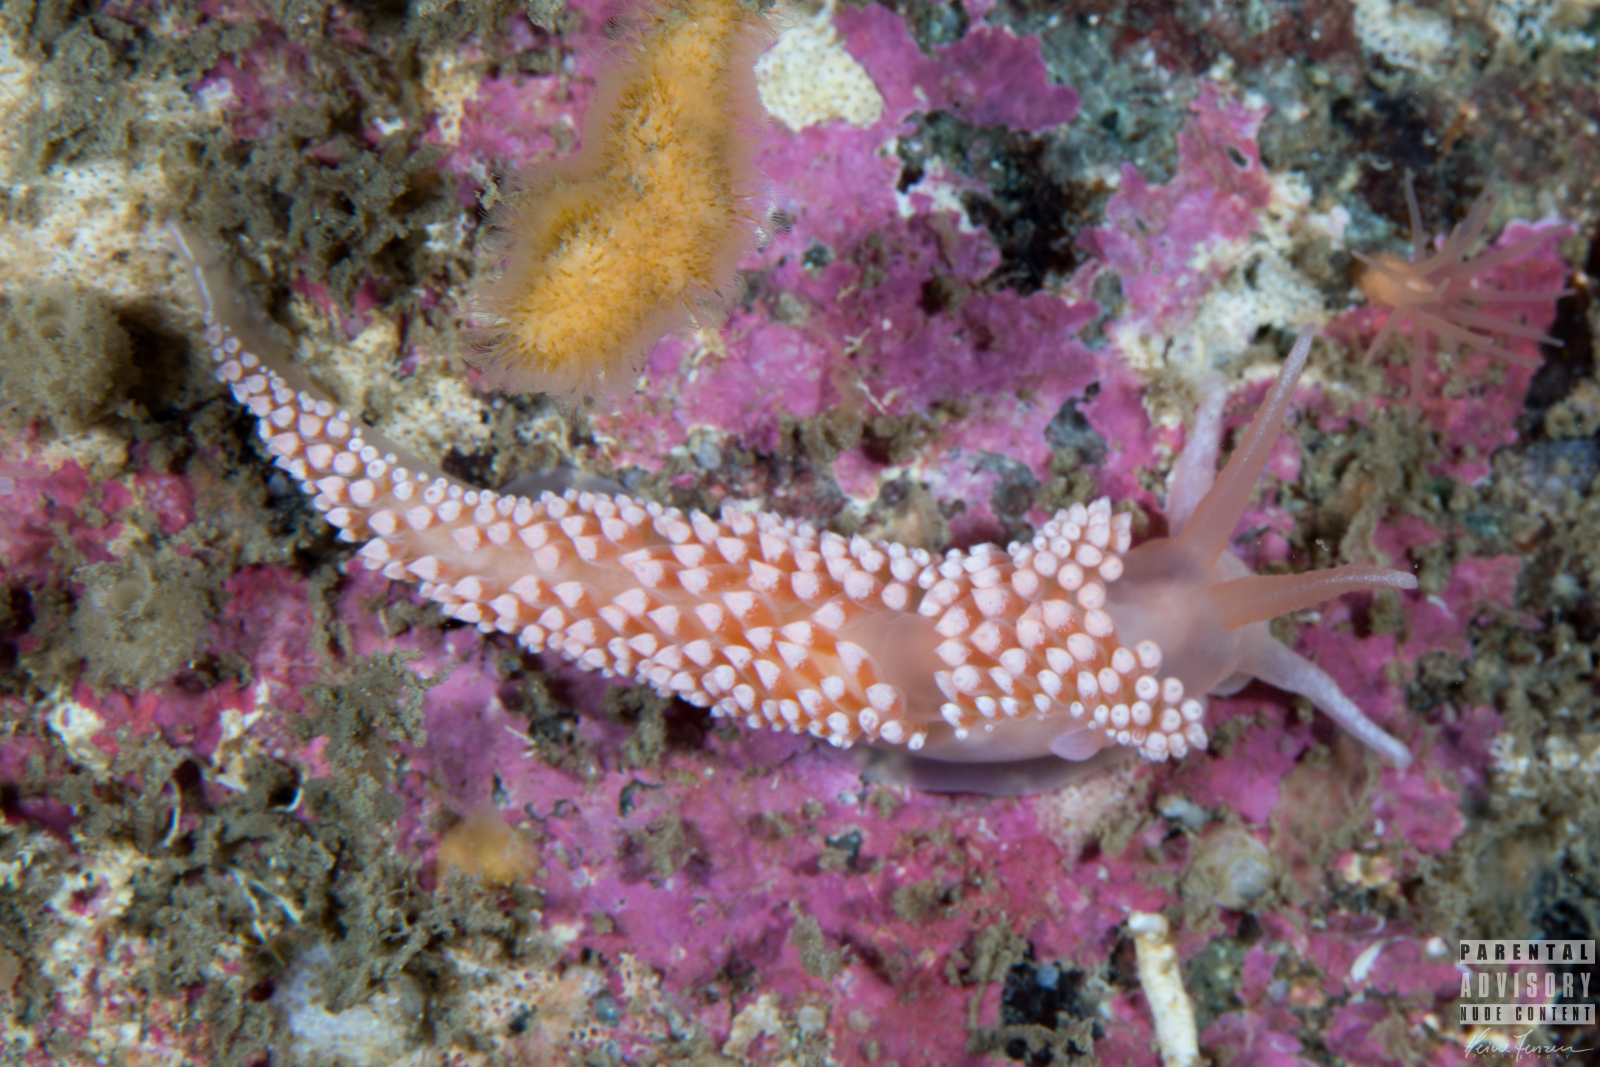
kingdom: Animalia
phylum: Mollusca
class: Gastropoda
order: Nudibranchia
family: Coryphellidae
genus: Coryphella
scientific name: Coryphella verrucosa
